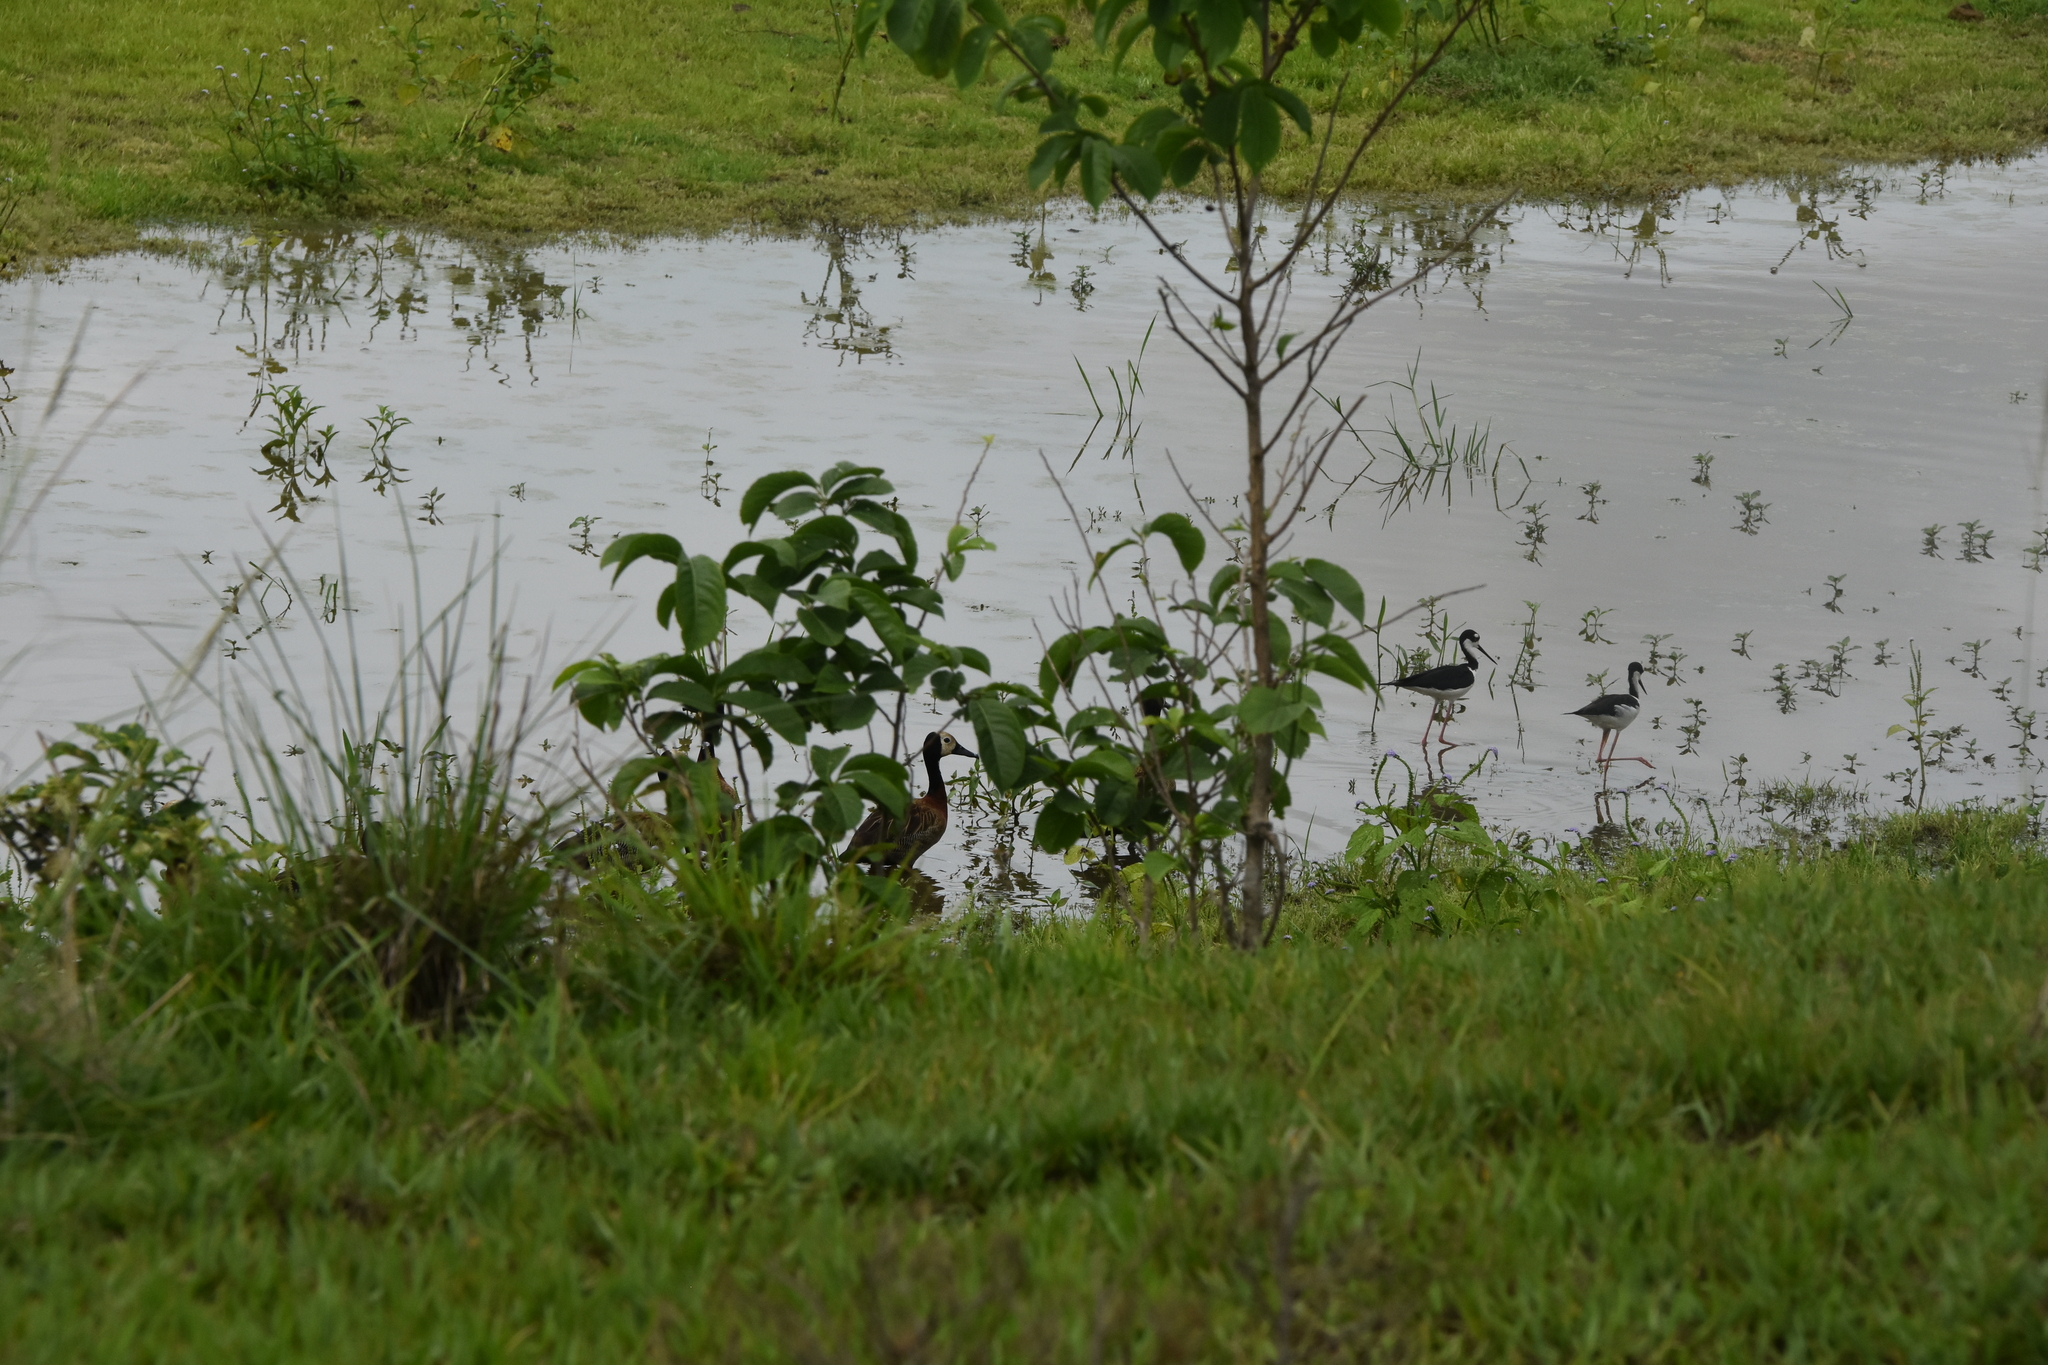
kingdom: Animalia
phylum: Chordata
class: Aves
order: Anseriformes
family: Anatidae
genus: Dendrocygna
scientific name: Dendrocygna viduata
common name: White-faced whistling duck
